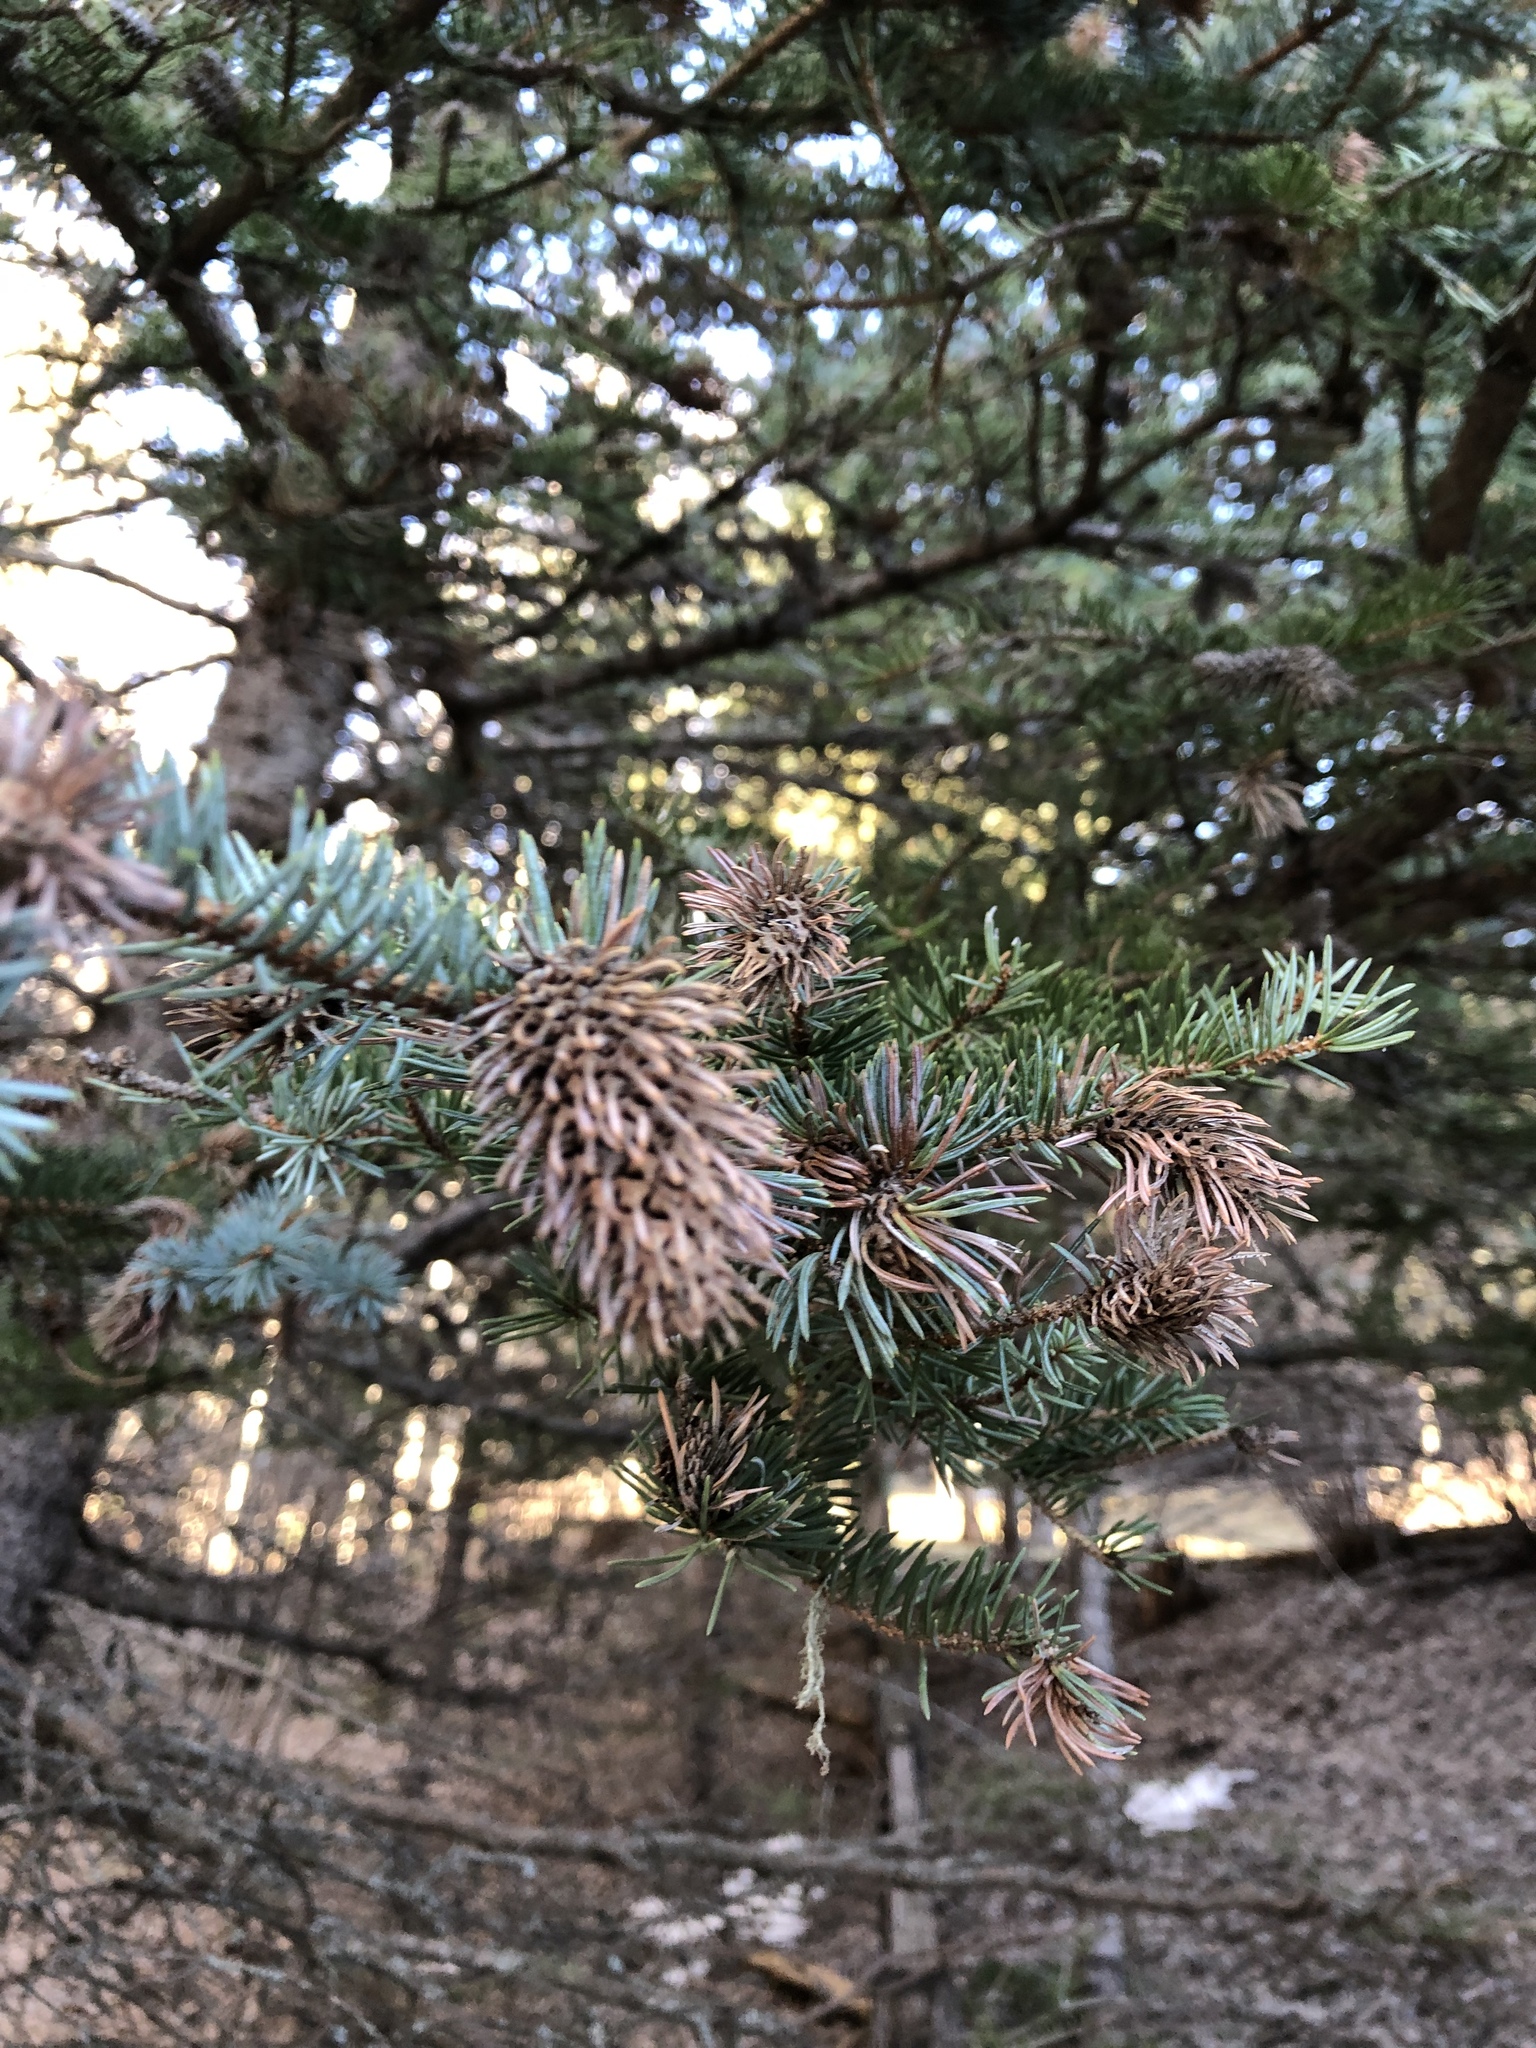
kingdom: Animalia
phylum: Arthropoda
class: Insecta
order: Hemiptera
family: Adelgidae
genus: Adelges
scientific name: Adelges cooleyi
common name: Cooley spruce gall adelgid
